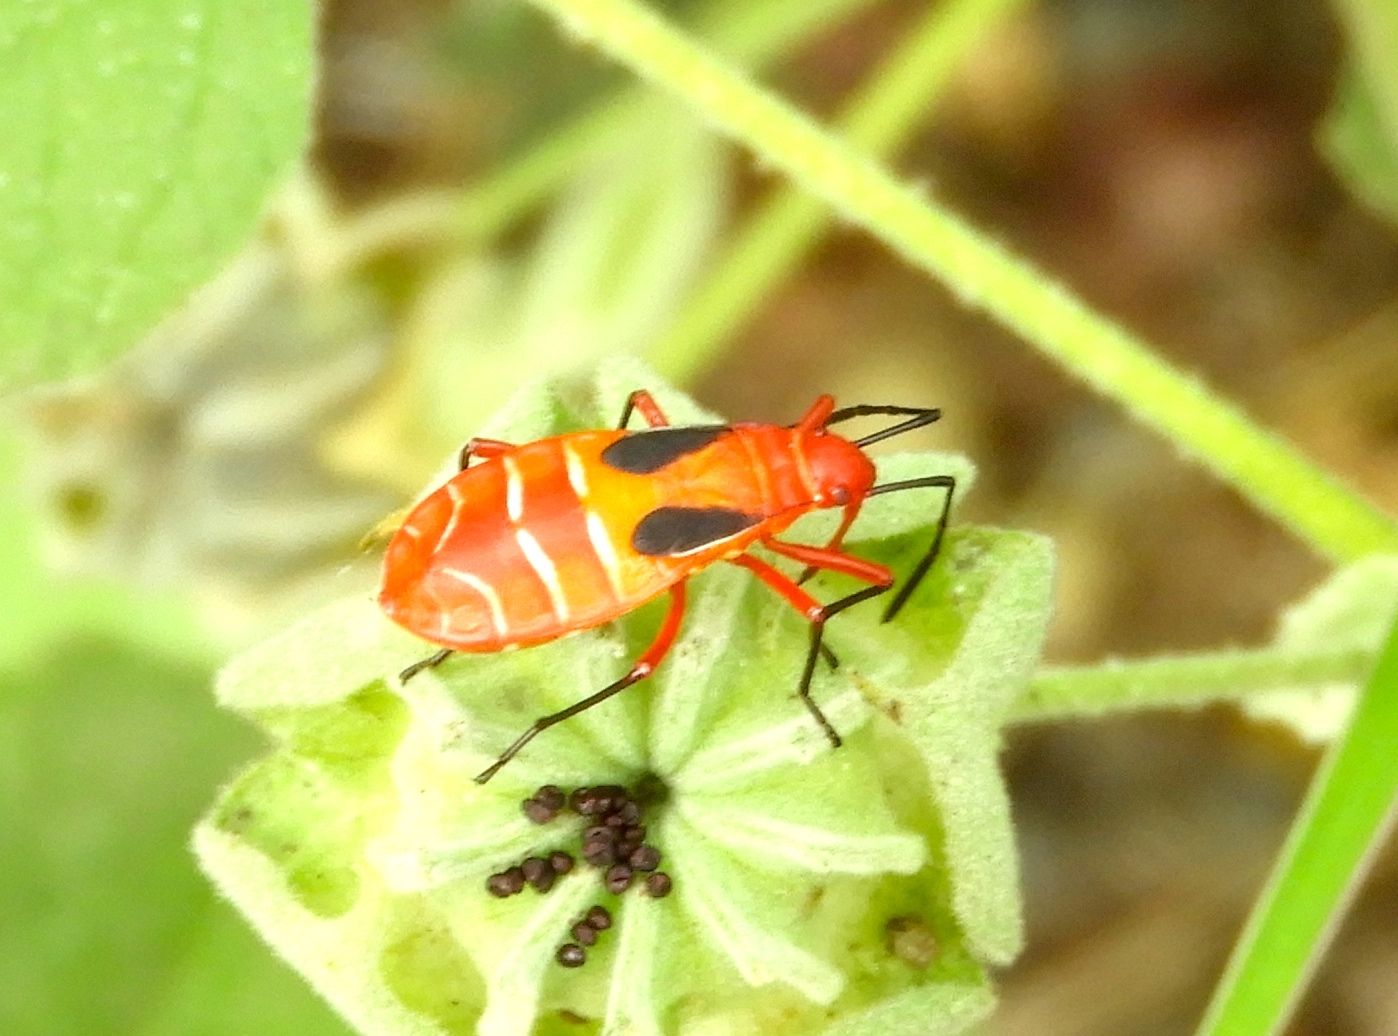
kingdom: Animalia
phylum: Arthropoda
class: Insecta
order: Hemiptera
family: Pyrrhocoridae
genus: Dysdercus
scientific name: Dysdercus
